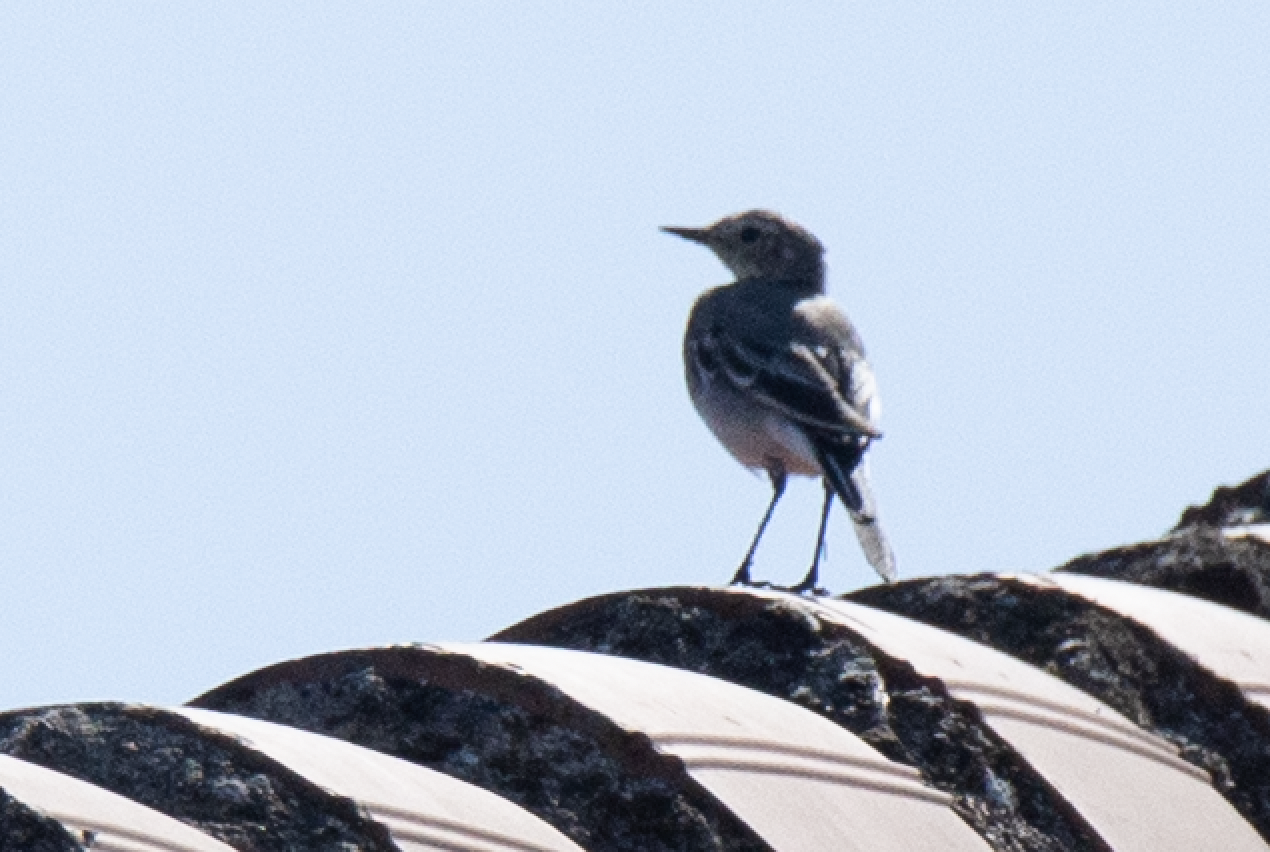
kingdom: Animalia
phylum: Chordata
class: Aves
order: Passeriformes
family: Motacillidae
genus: Motacilla
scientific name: Motacilla alba
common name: White wagtail
